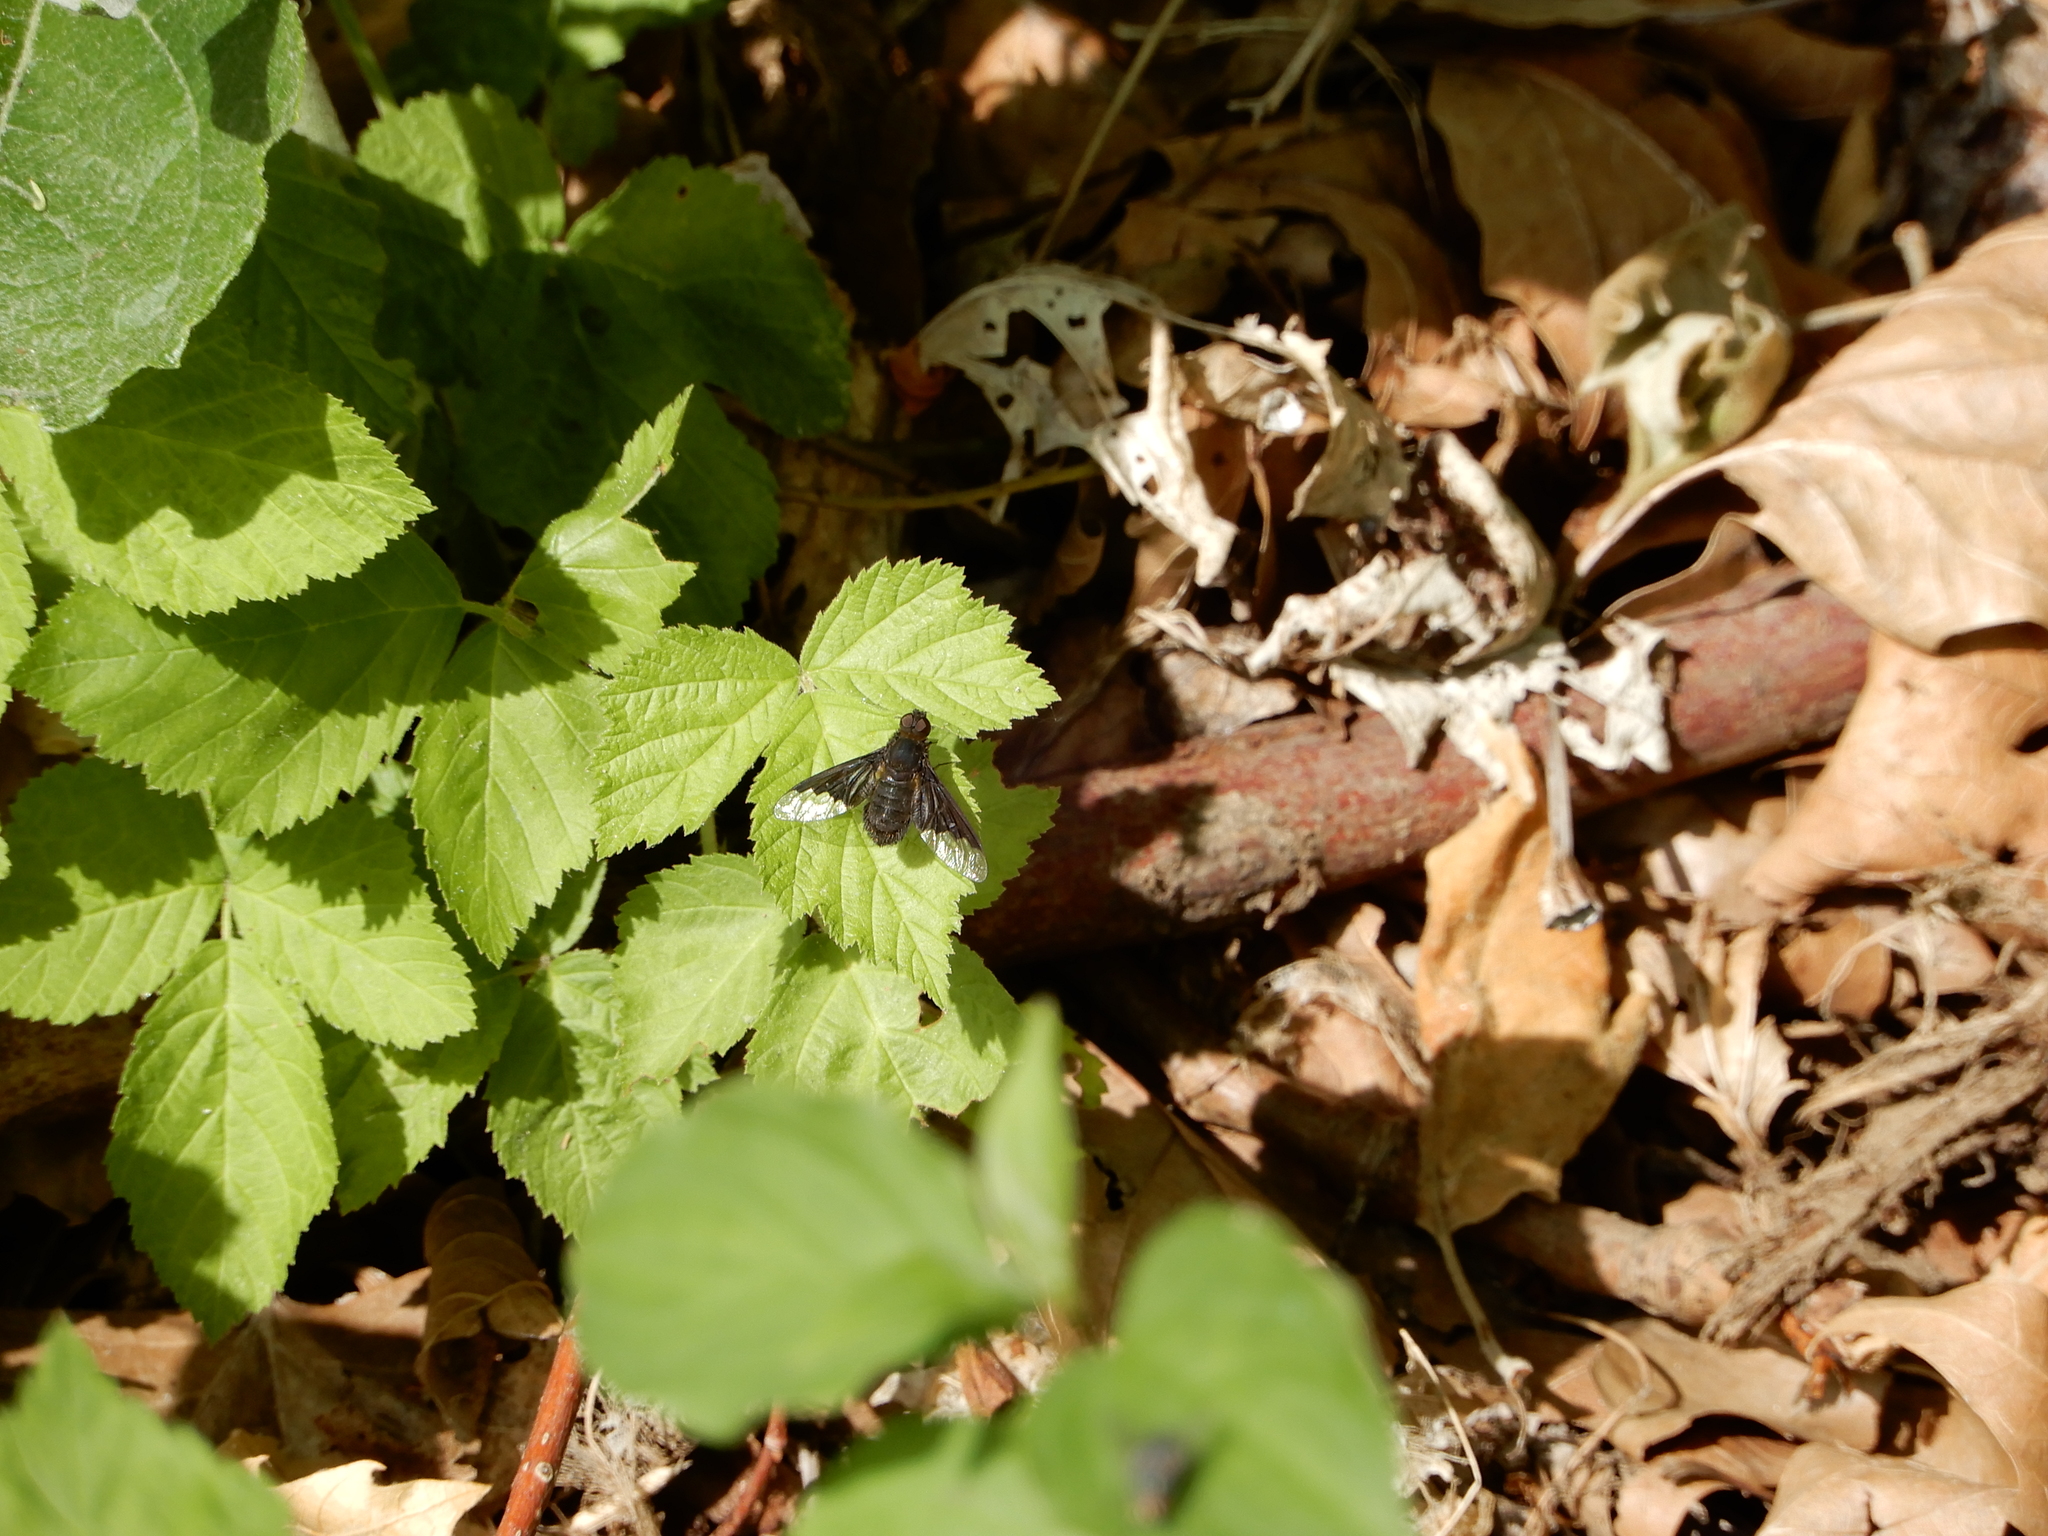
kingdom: Animalia
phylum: Arthropoda
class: Insecta
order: Diptera
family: Bombyliidae
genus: Hemipenthes
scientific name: Hemipenthes morio
